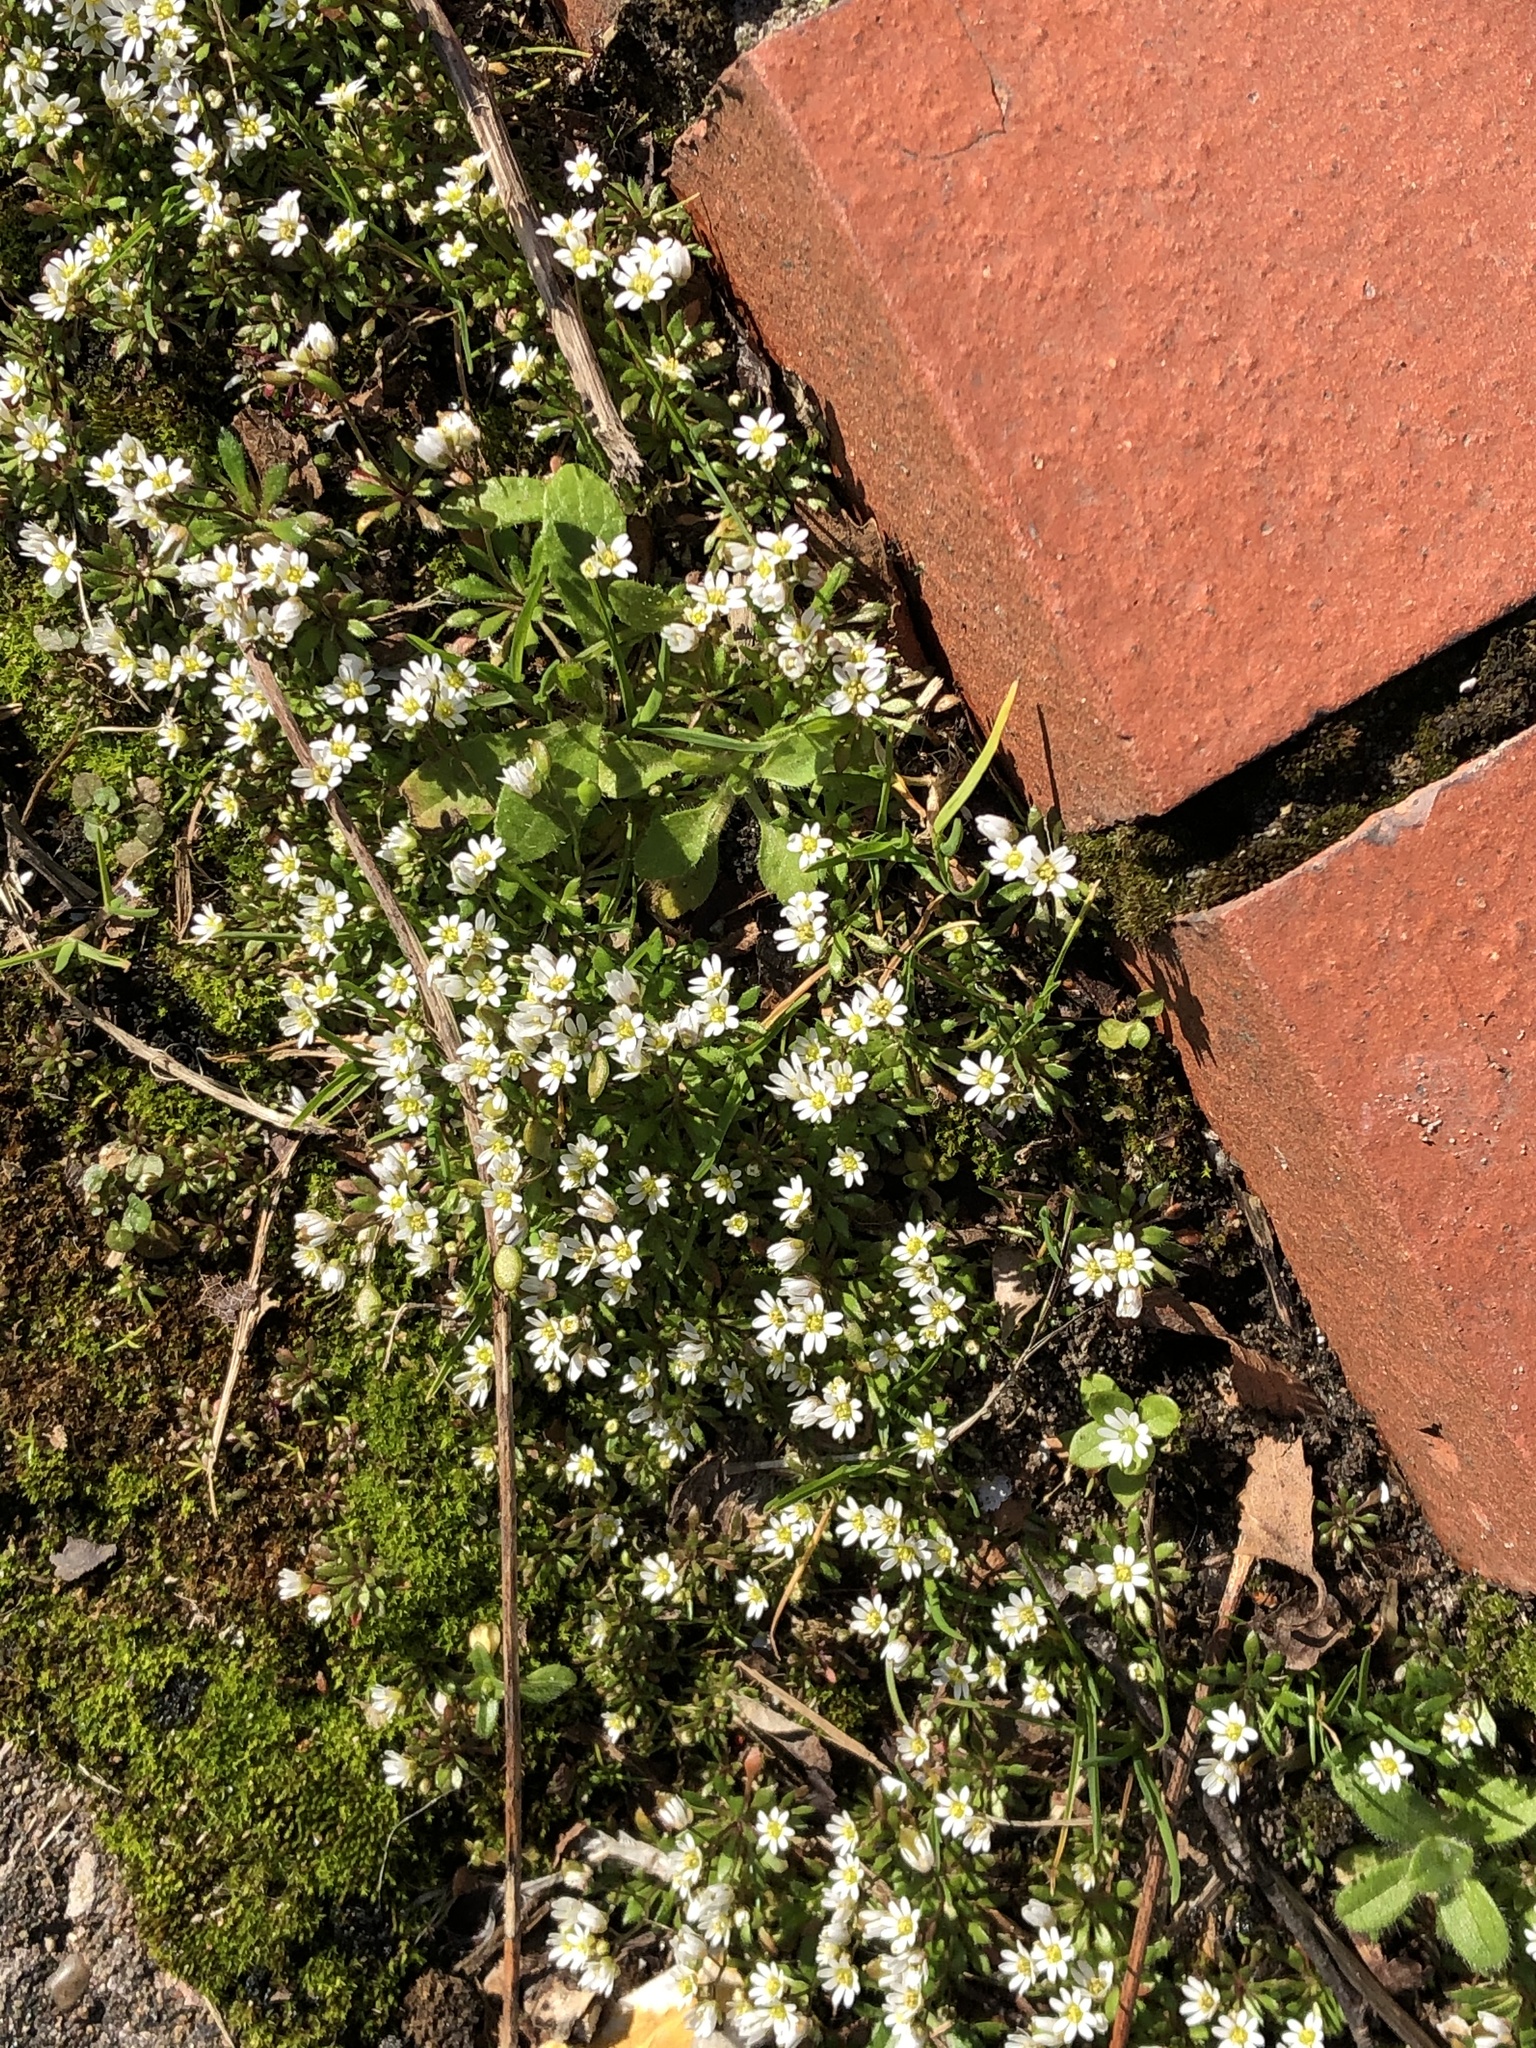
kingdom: Plantae
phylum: Tracheophyta
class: Magnoliopsida
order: Brassicales
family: Brassicaceae
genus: Draba
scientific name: Draba verna
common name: Spring draba
